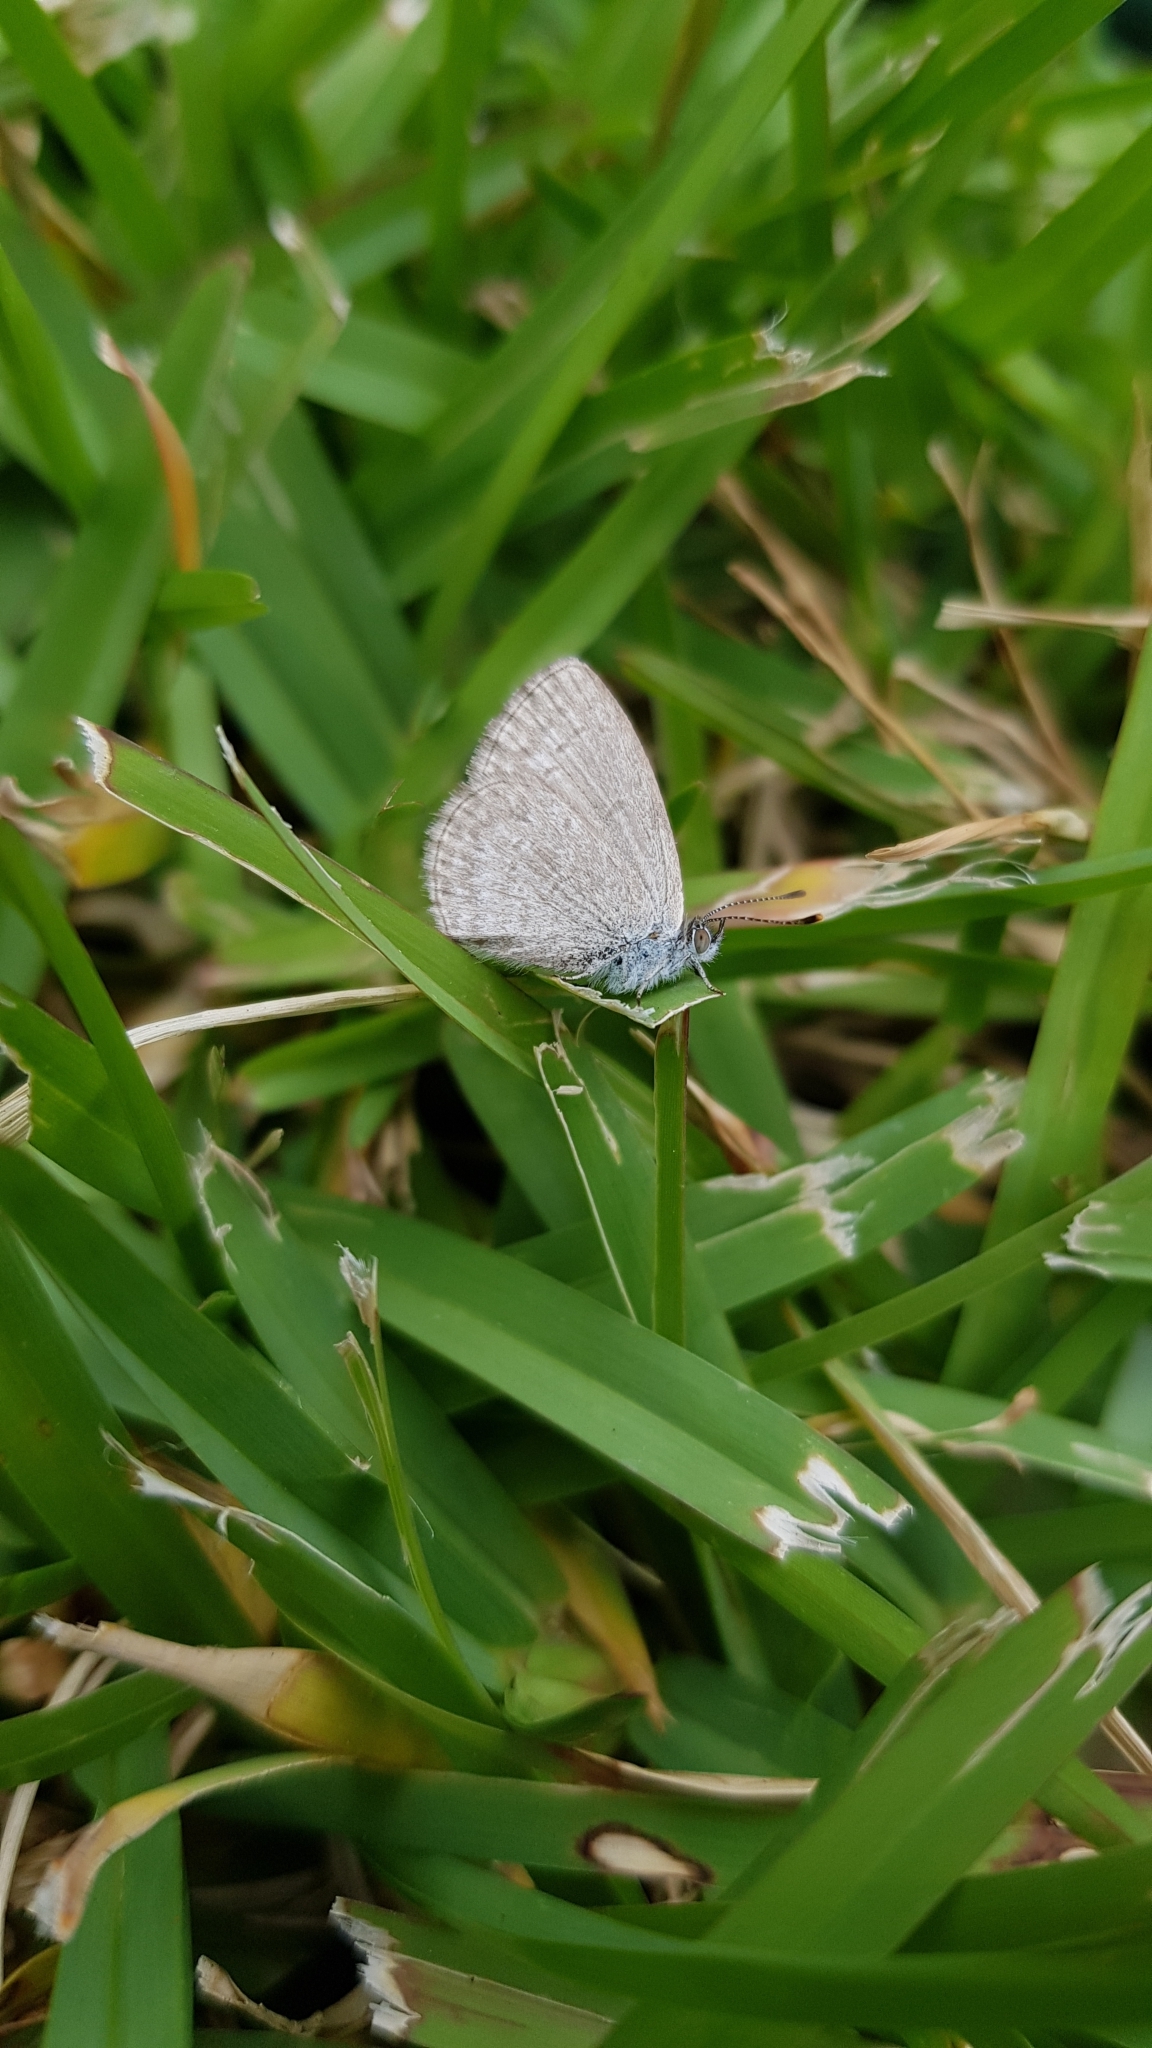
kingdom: Animalia
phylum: Arthropoda
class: Insecta
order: Lepidoptera
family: Lycaenidae
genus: Zizina
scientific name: Zizina otis
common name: Lesser grass blue
